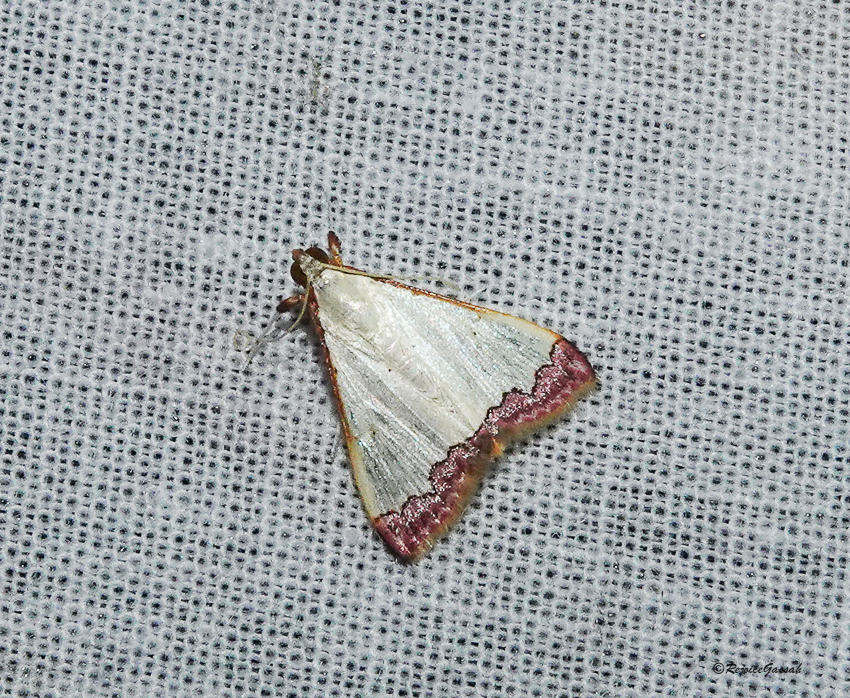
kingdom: Animalia
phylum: Arthropoda
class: Insecta
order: Lepidoptera
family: Crambidae
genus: Autocharis
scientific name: Autocharis hedyphaes
